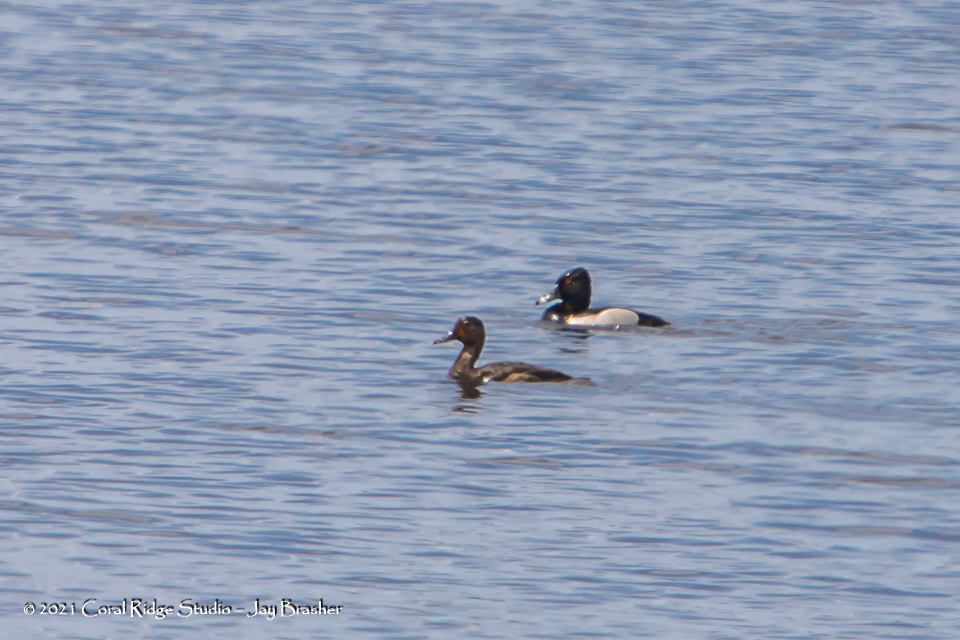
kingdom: Animalia
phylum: Chordata
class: Aves
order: Anseriformes
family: Anatidae
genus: Aythya
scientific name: Aythya collaris
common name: Ring-necked duck
